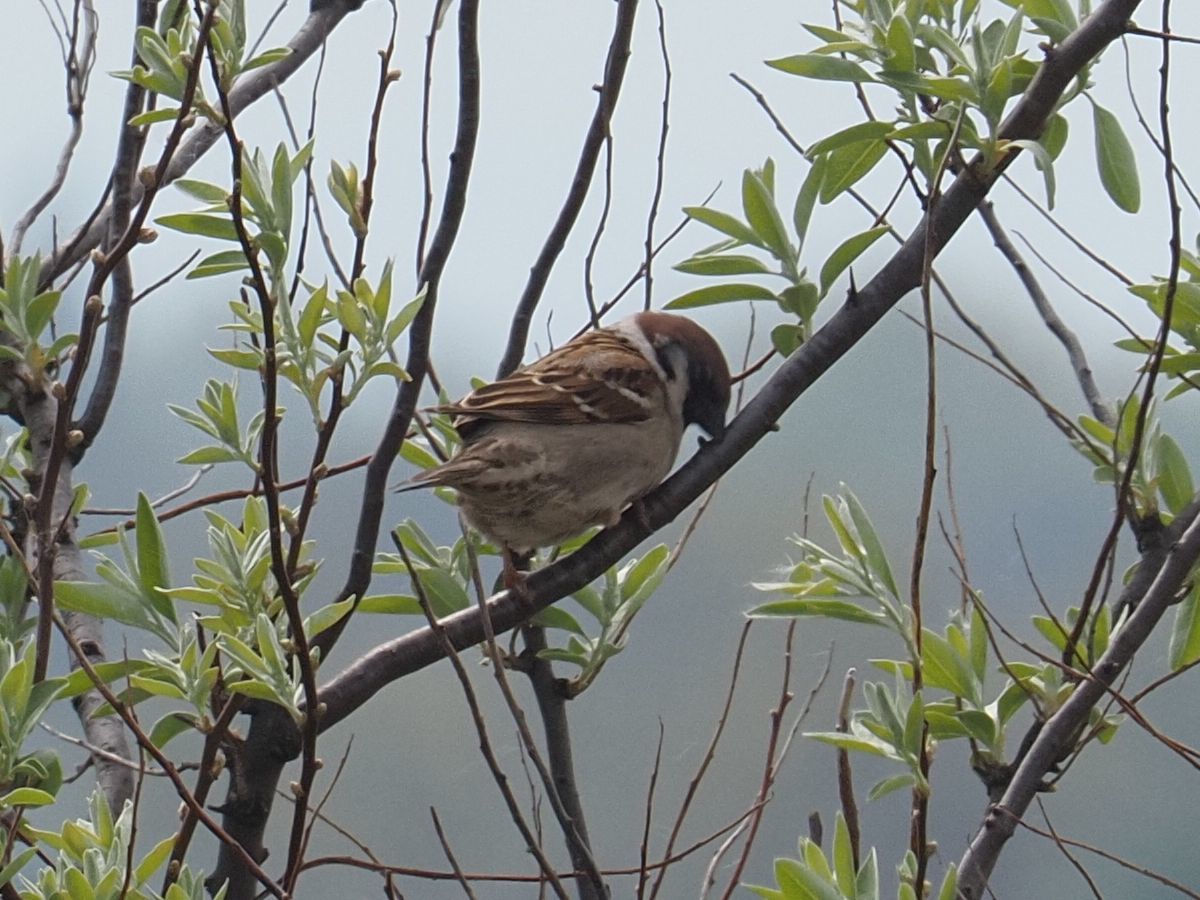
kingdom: Animalia
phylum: Chordata
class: Aves
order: Passeriformes
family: Passeridae
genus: Passer
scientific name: Passer montanus
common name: Eurasian tree sparrow
